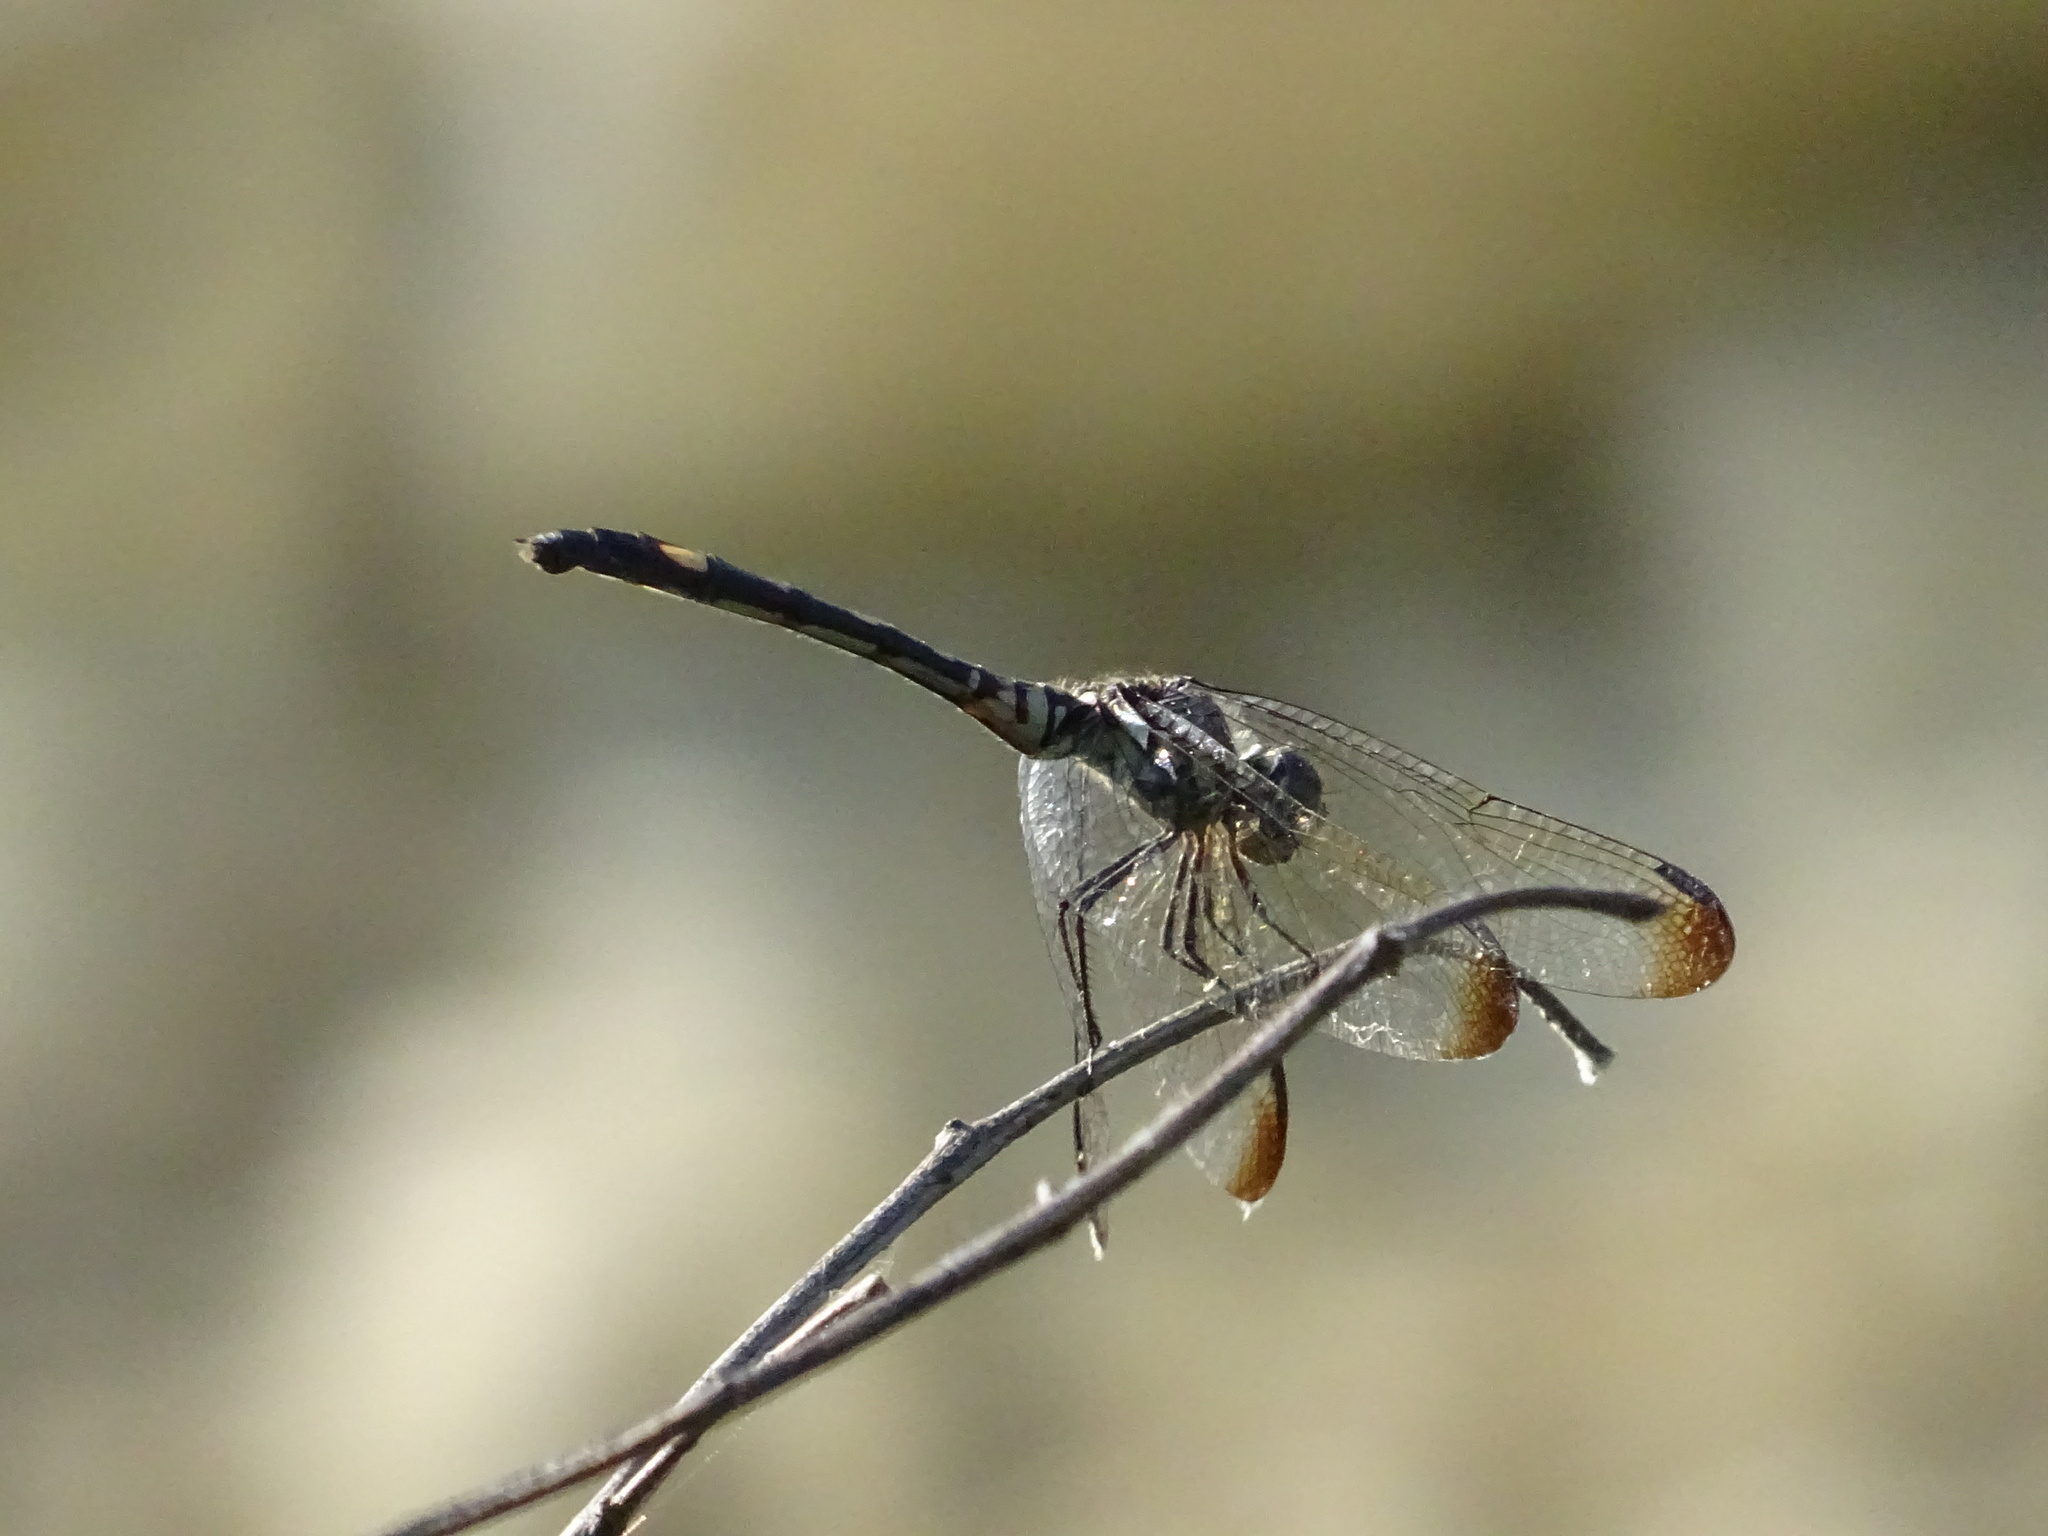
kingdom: Animalia
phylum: Arthropoda
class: Insecta
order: Odonata
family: Libellulidae
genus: Dythemis
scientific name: Dythemis velox
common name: Swift setwing
